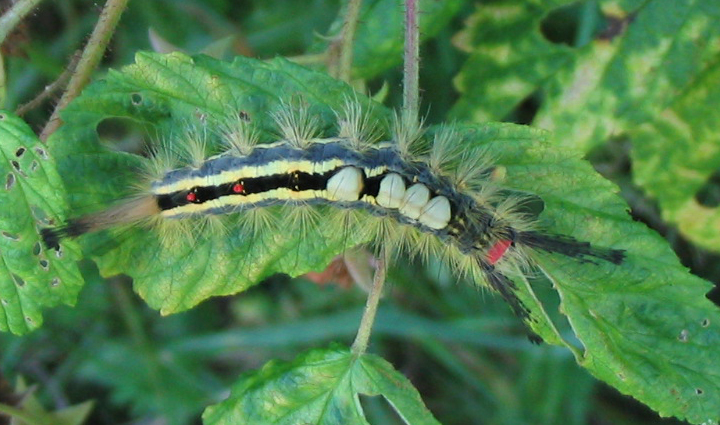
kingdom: Animalia
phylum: Arthropoda
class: Insecta
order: Lepidoptera
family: Erebidae
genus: Orgyia
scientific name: Orgyia leucostigma
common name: White-marked tussock moth
